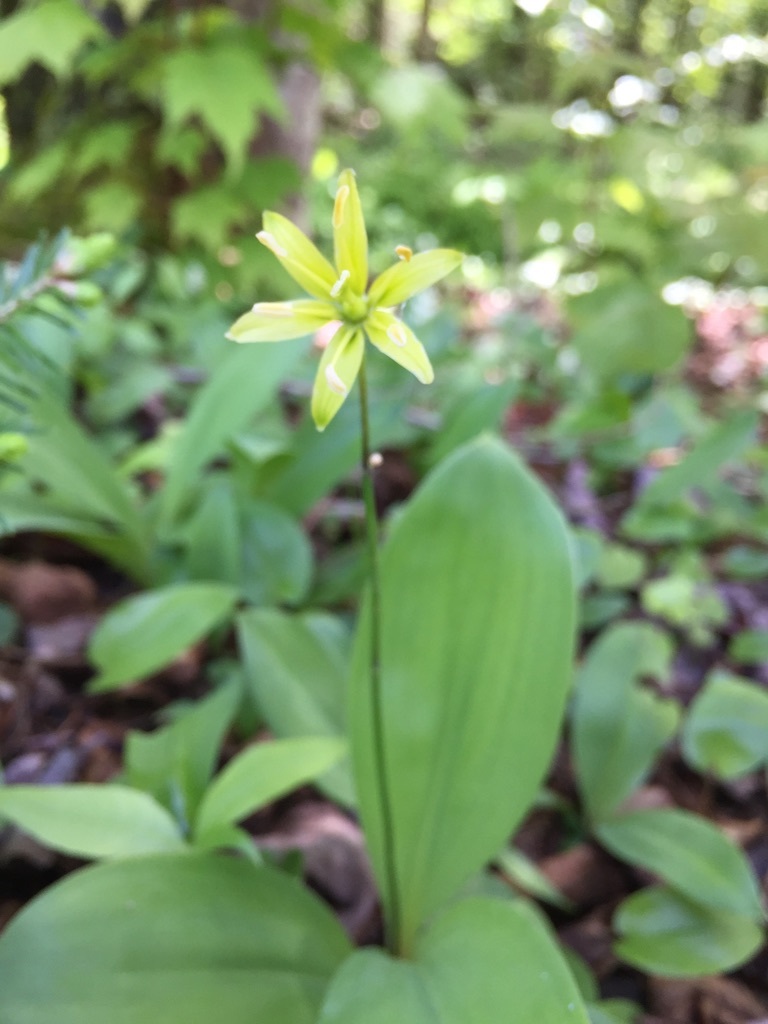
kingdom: Plantae
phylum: Tracheophyta
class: Liliopsida
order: Liliales
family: Liliaceae
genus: Clintonia
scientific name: Clintonia borealis
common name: Yellow clintonia
